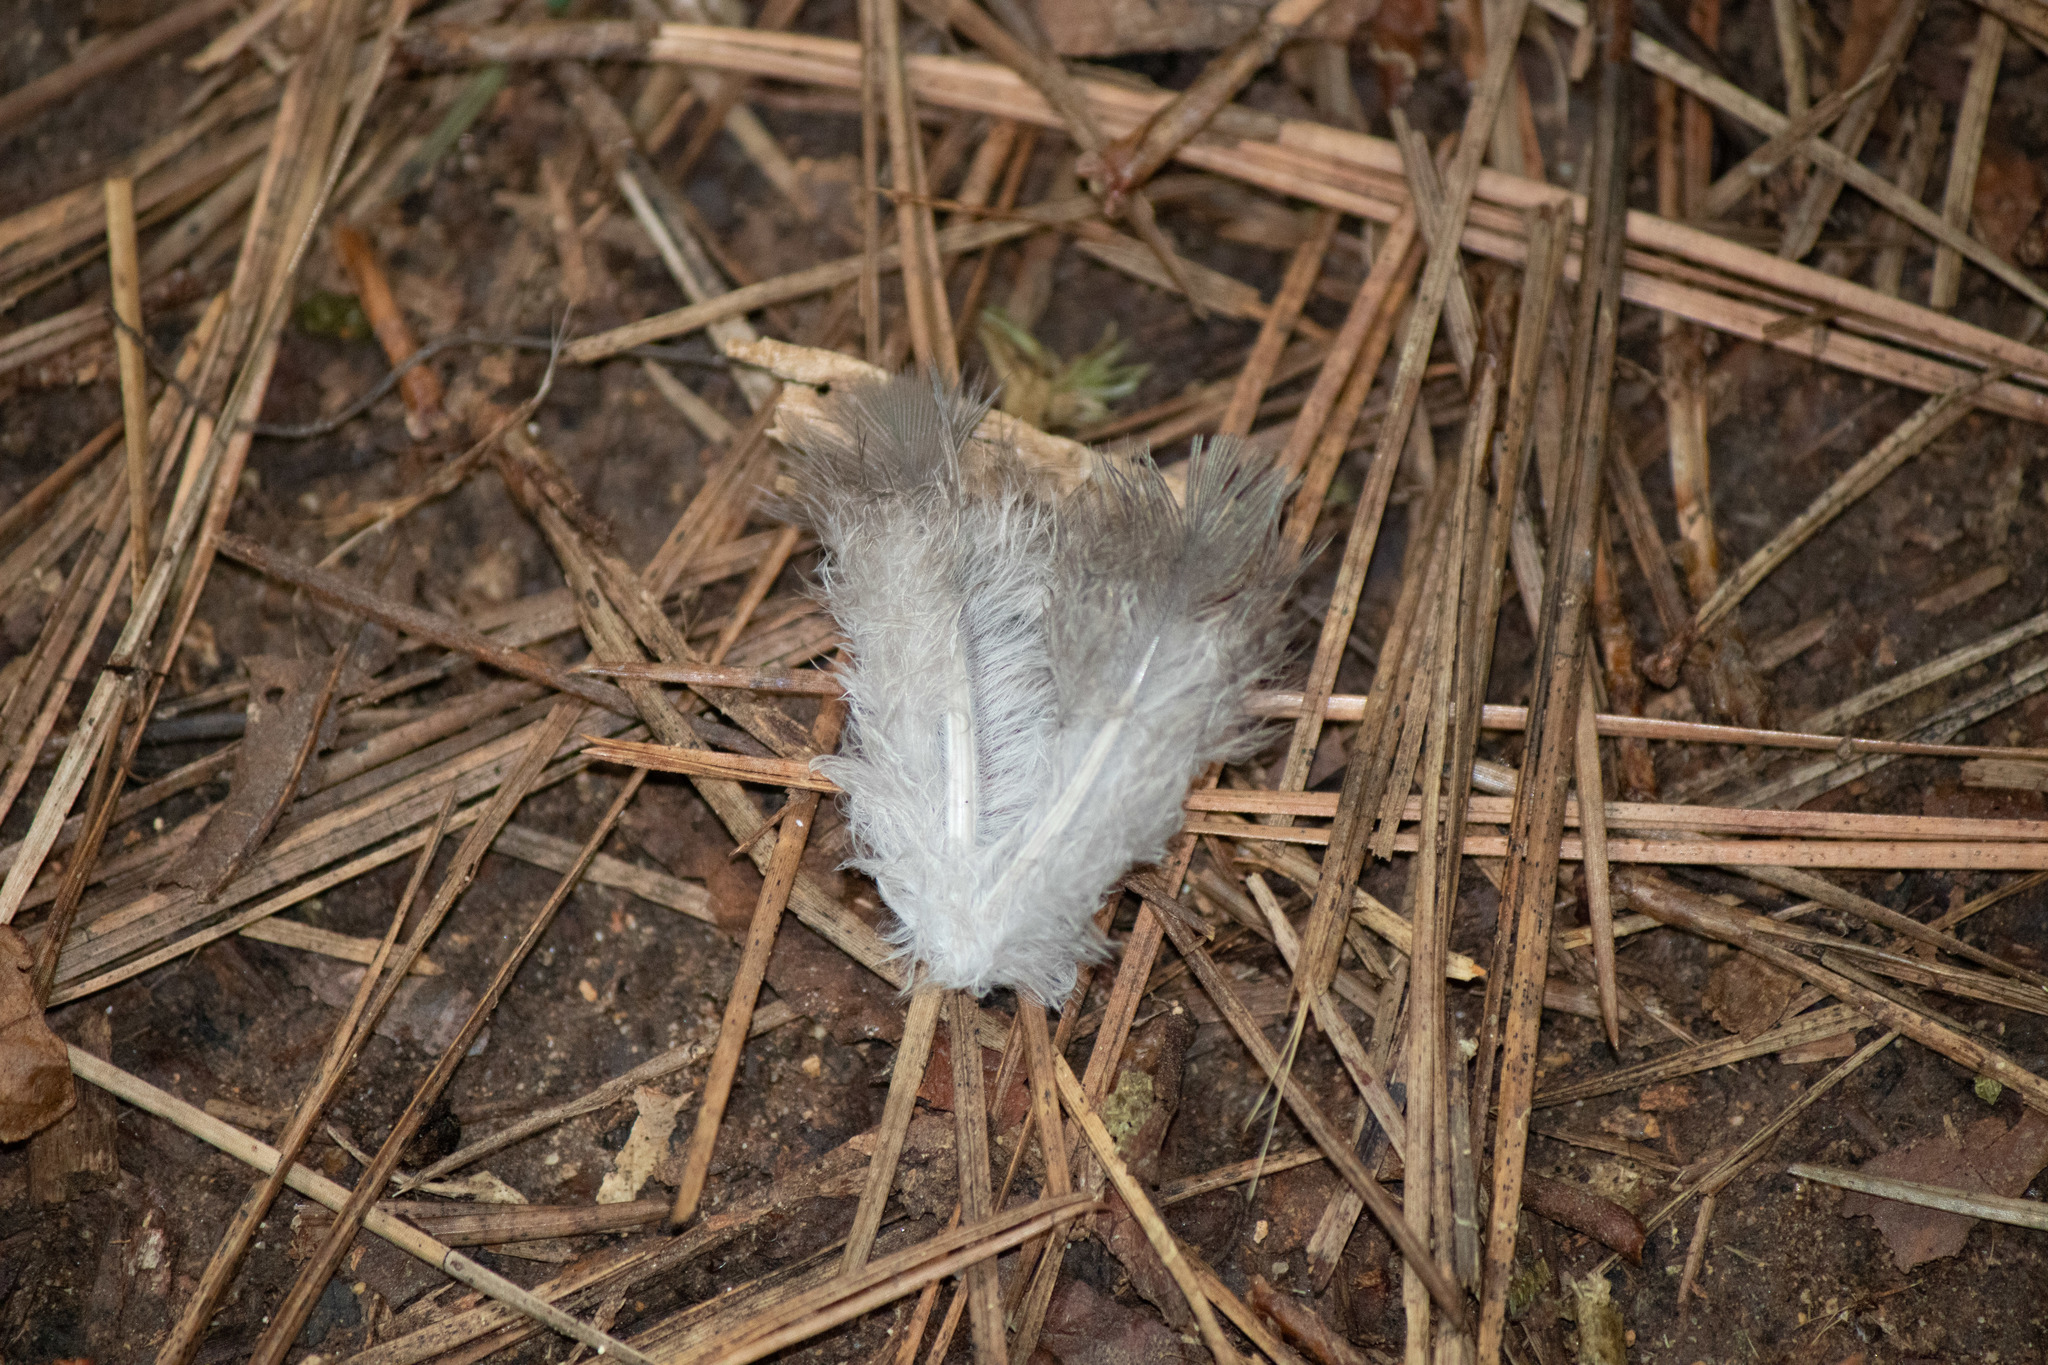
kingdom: Animalia
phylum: Chordata
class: Aves
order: Columbiformes
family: Columbidae
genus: Zenaida
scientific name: Zenaida macroura
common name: Mourning dove
